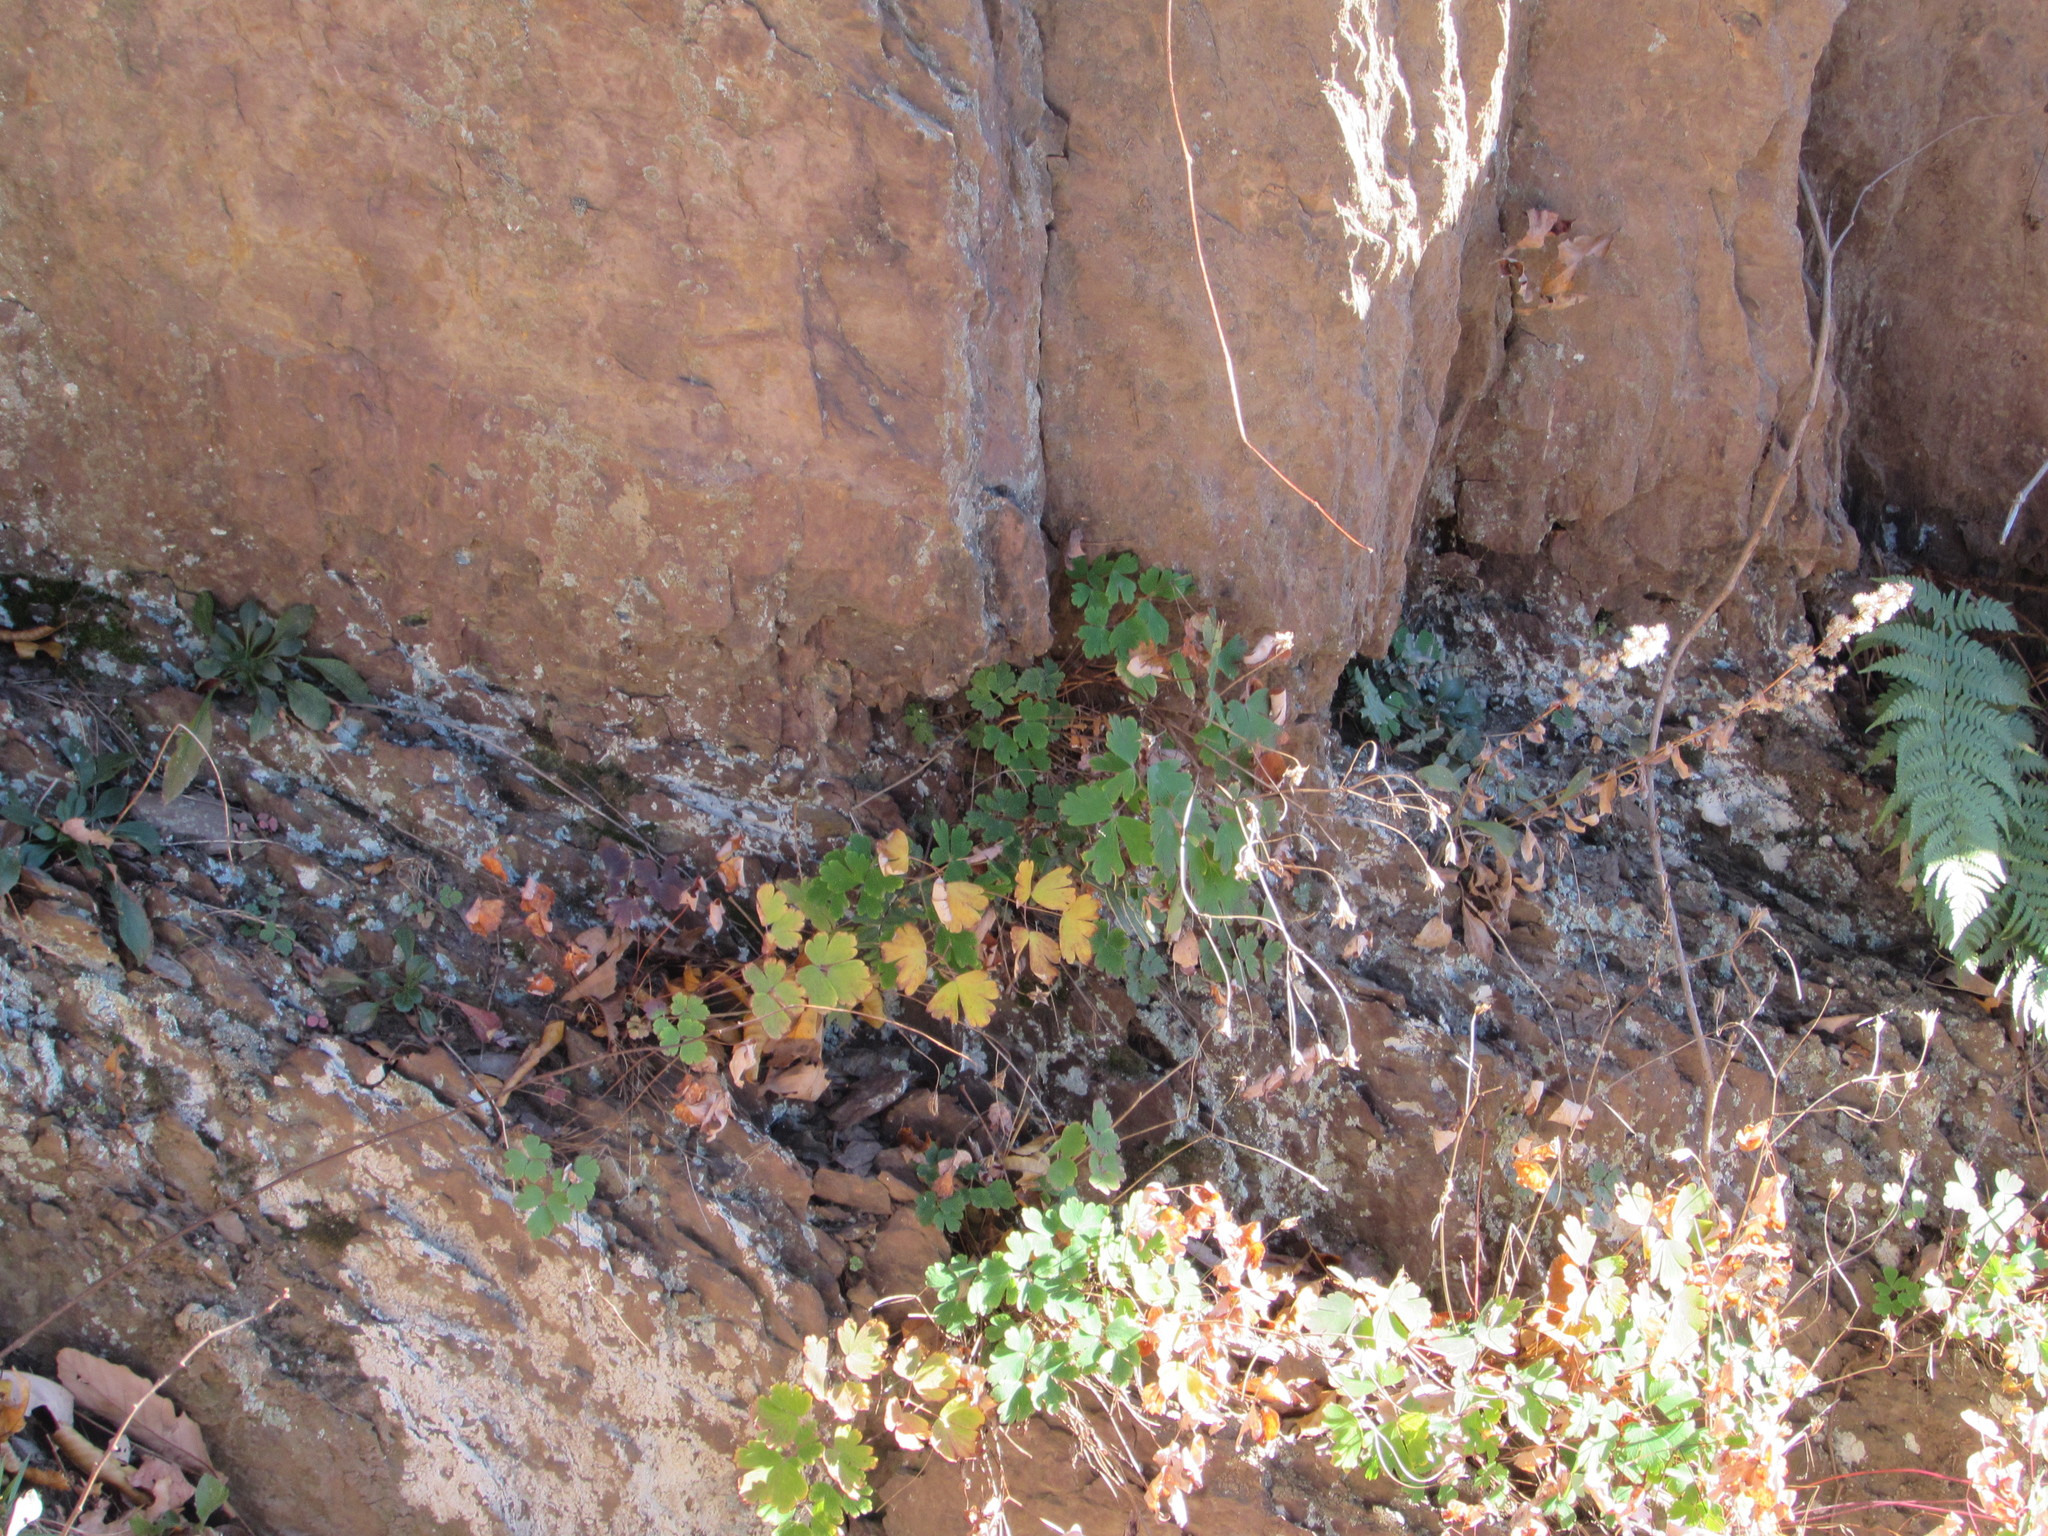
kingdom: Plantae
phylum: Tracheophyta
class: Magnoliopsida
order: Ranunculales
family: Ranunculaceae
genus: Aquilegia
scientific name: Aquilegia canadensis
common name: American columbine
